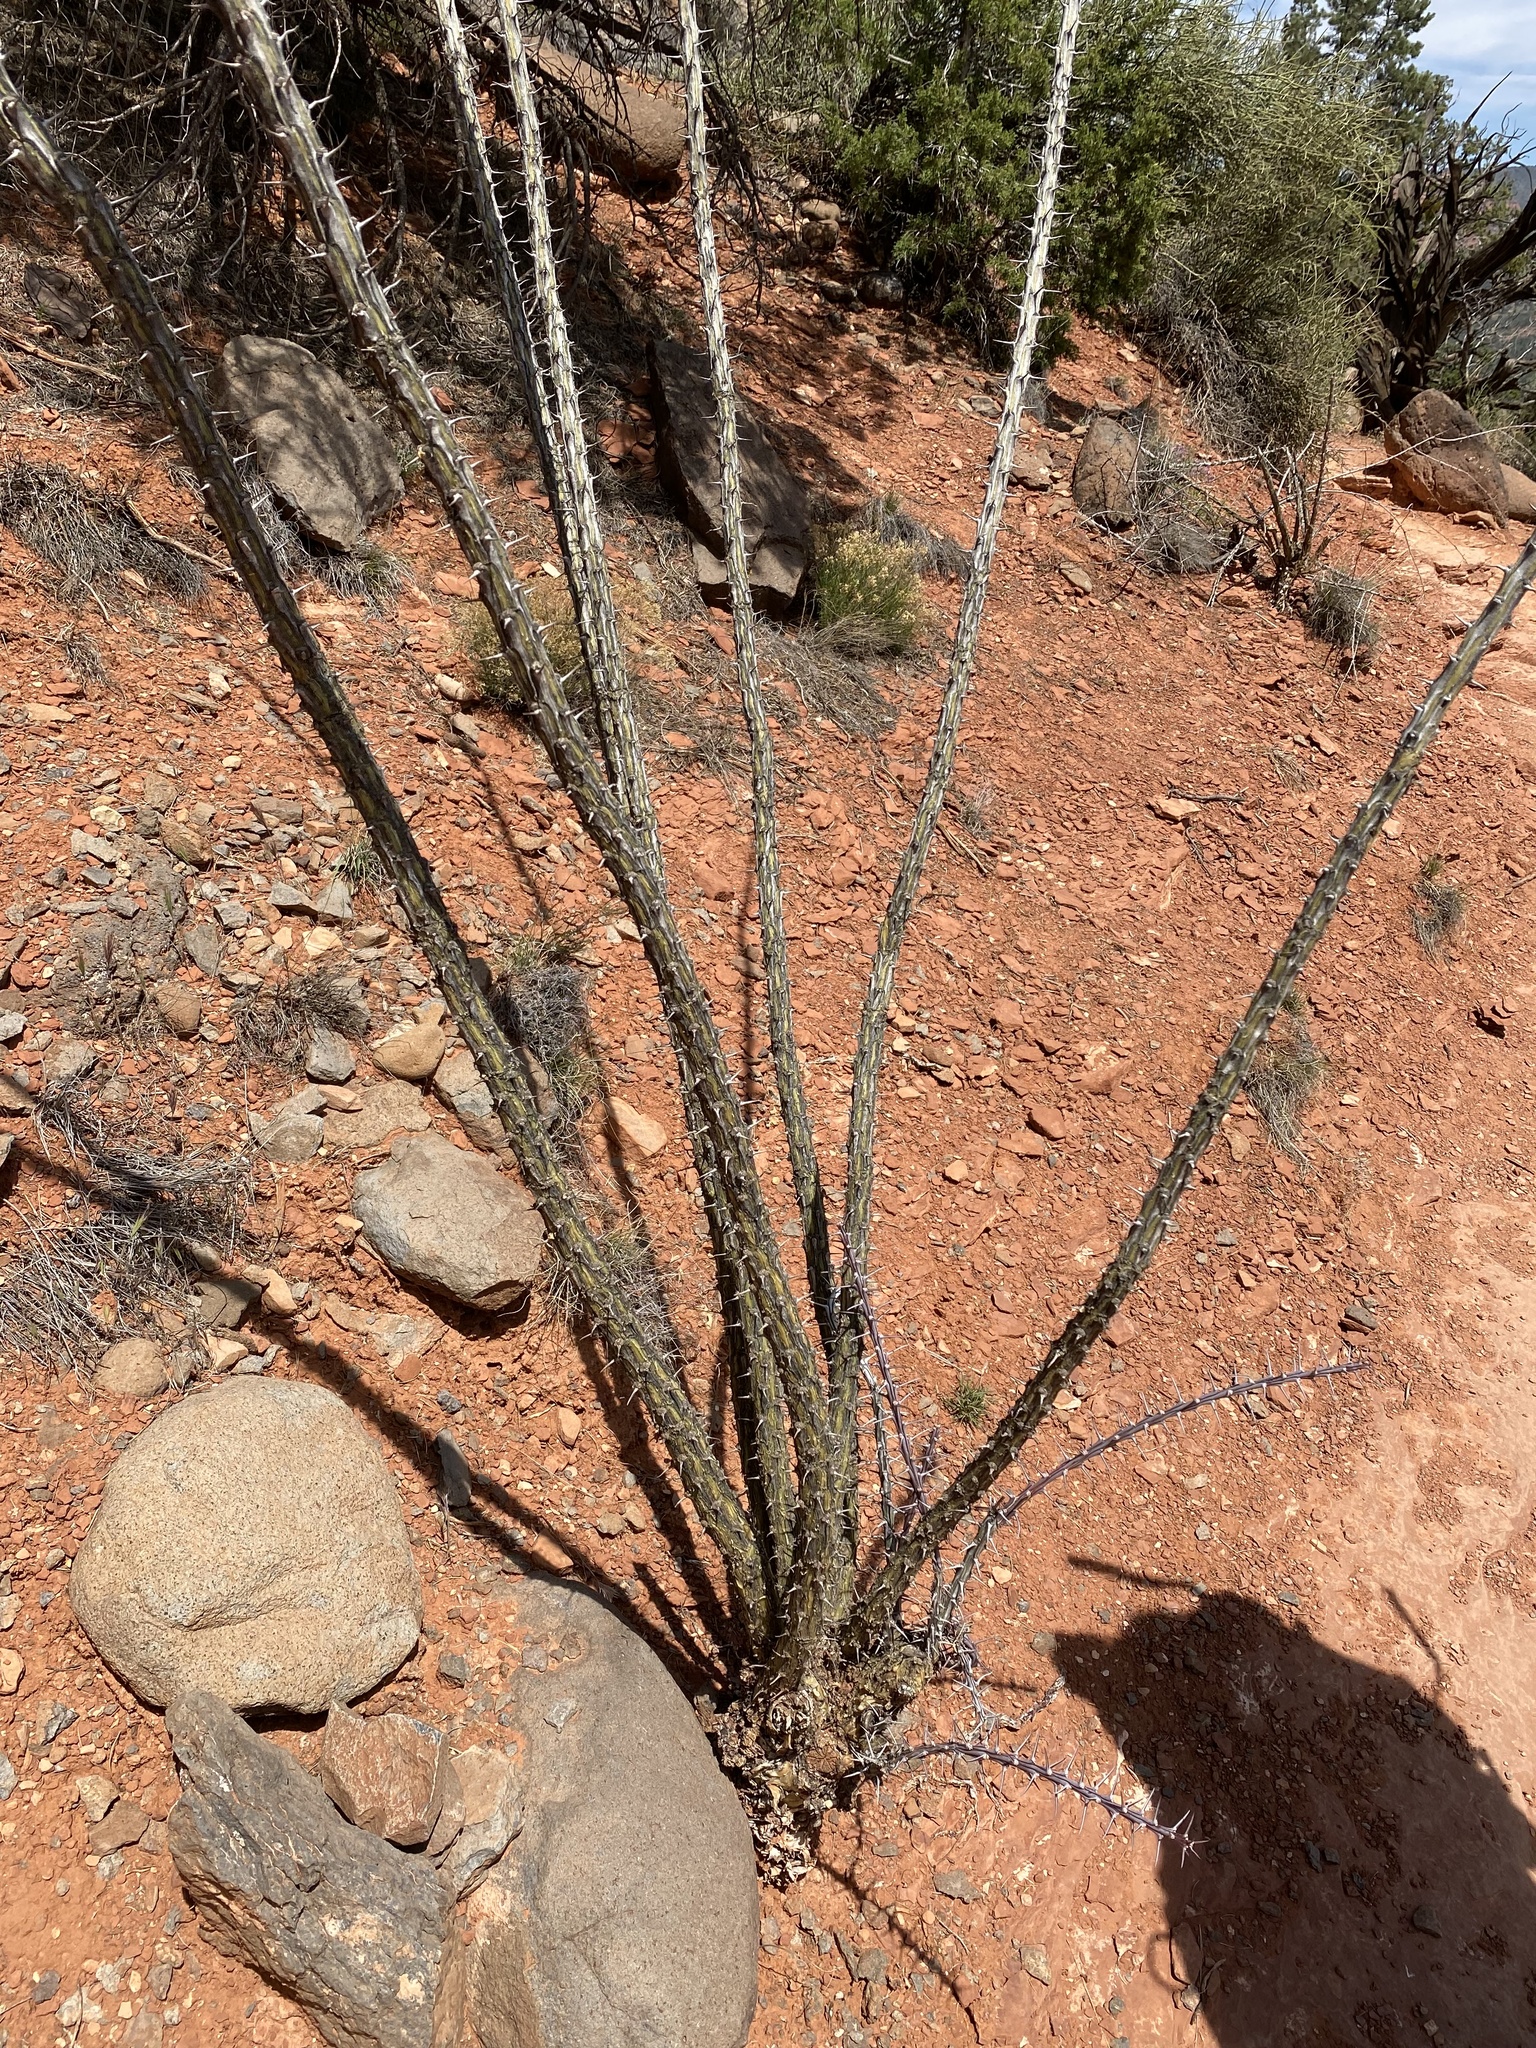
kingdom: Plantae
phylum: Tracheophyta
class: Magnoliopsida
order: Ericales
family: Fouquieriaceae
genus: Fouquieria
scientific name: Fouquieria splendens
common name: Vine-cactus
